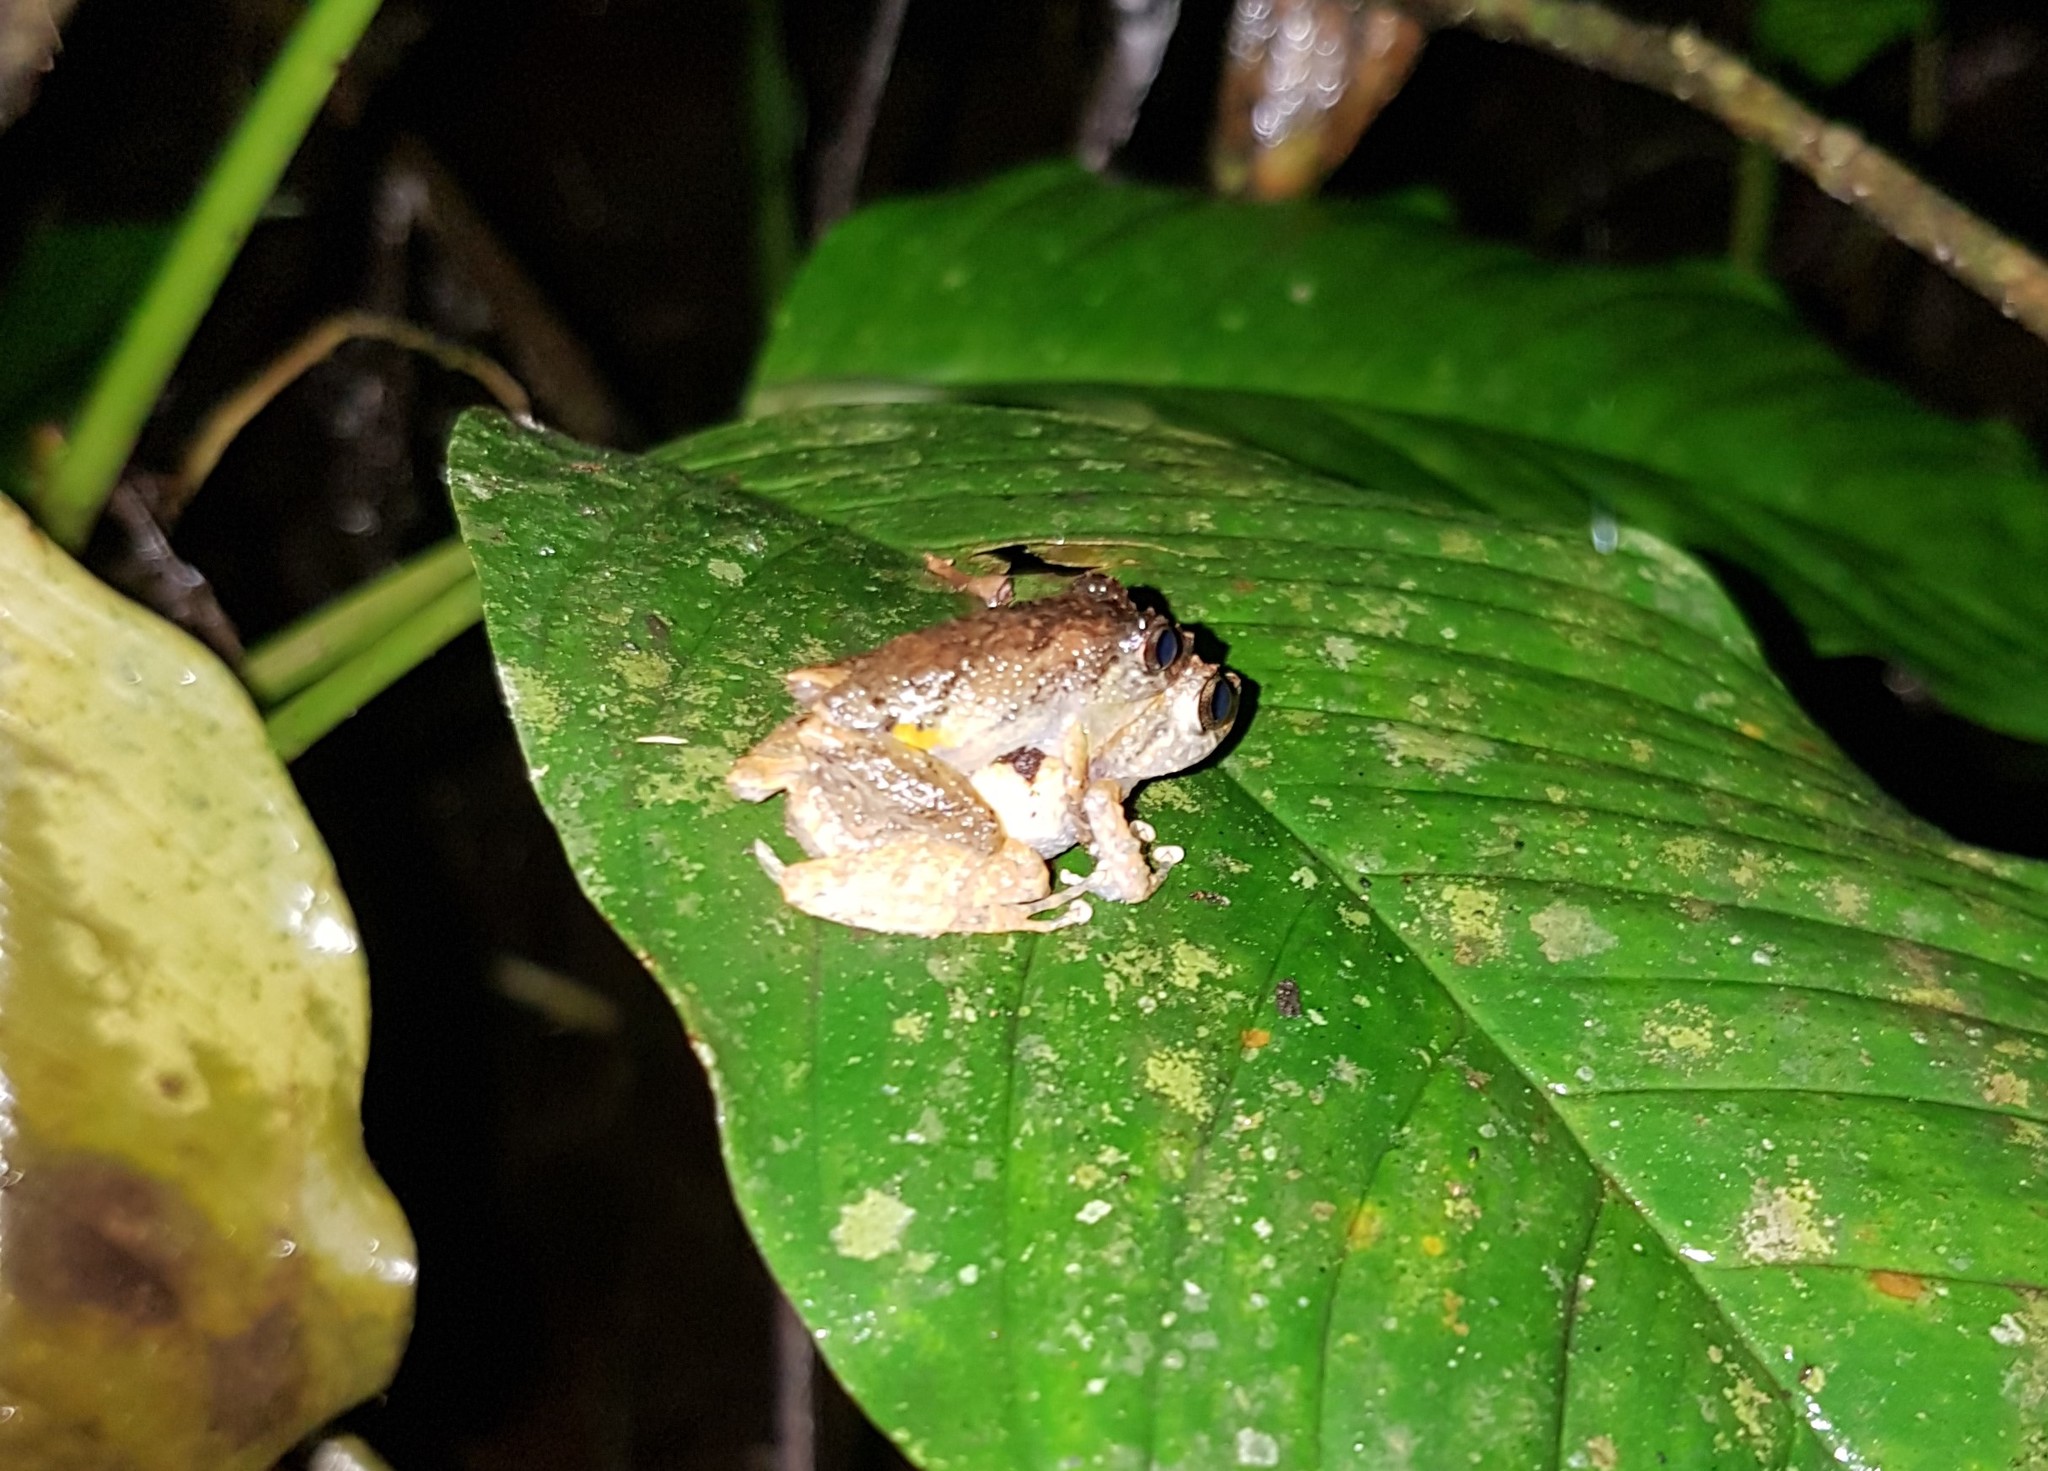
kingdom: Animalia
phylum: Chordata
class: Amphibia
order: Anura
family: Craugastoridae
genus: Pristimantis
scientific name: Pristimantis luteolateralis
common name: White-striped robber frog
